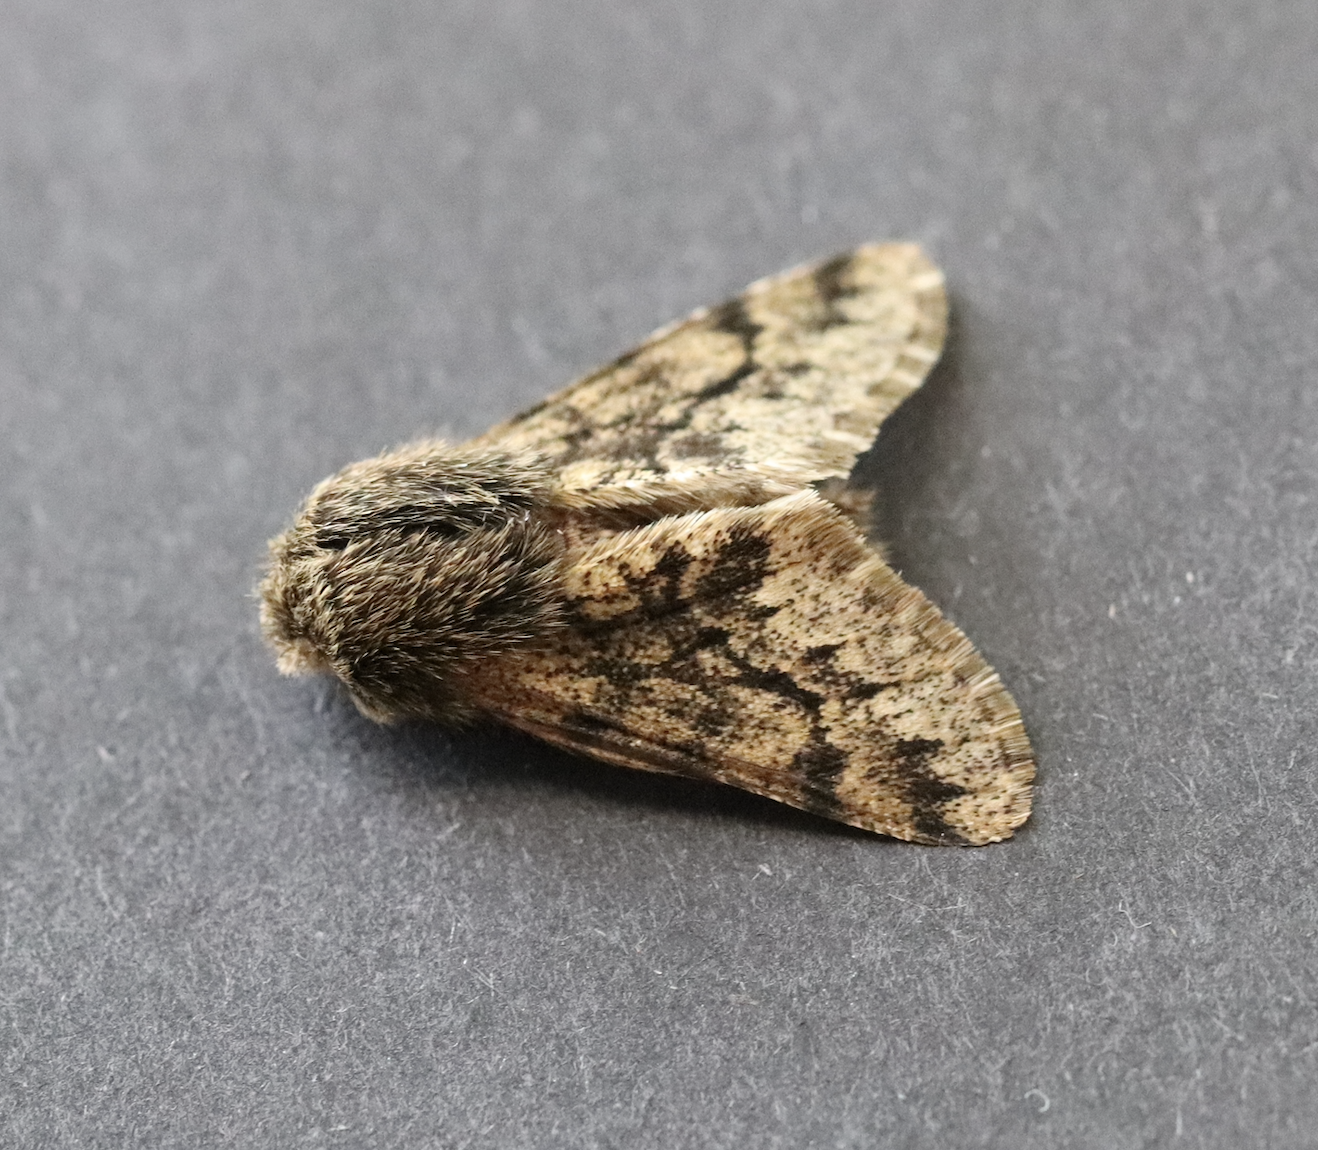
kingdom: Animalia
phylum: Arthropoda
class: Insecta
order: Lepidoptera
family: Geometridae
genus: Apocheima
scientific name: Apocheima hispidaria
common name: Small brindled beauty
